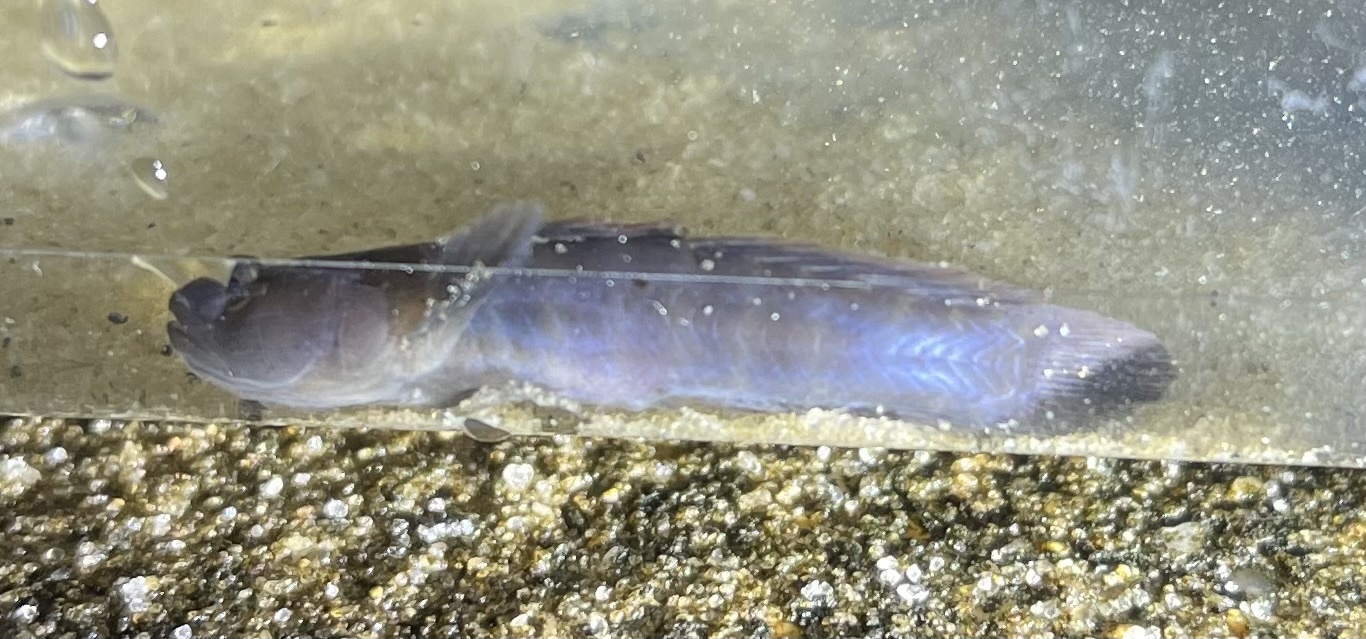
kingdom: Animalia
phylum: Chordata
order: Perciformes
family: Gobiidae
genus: Gobiosoma
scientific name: Gobiosoma bosc
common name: Naked goby
